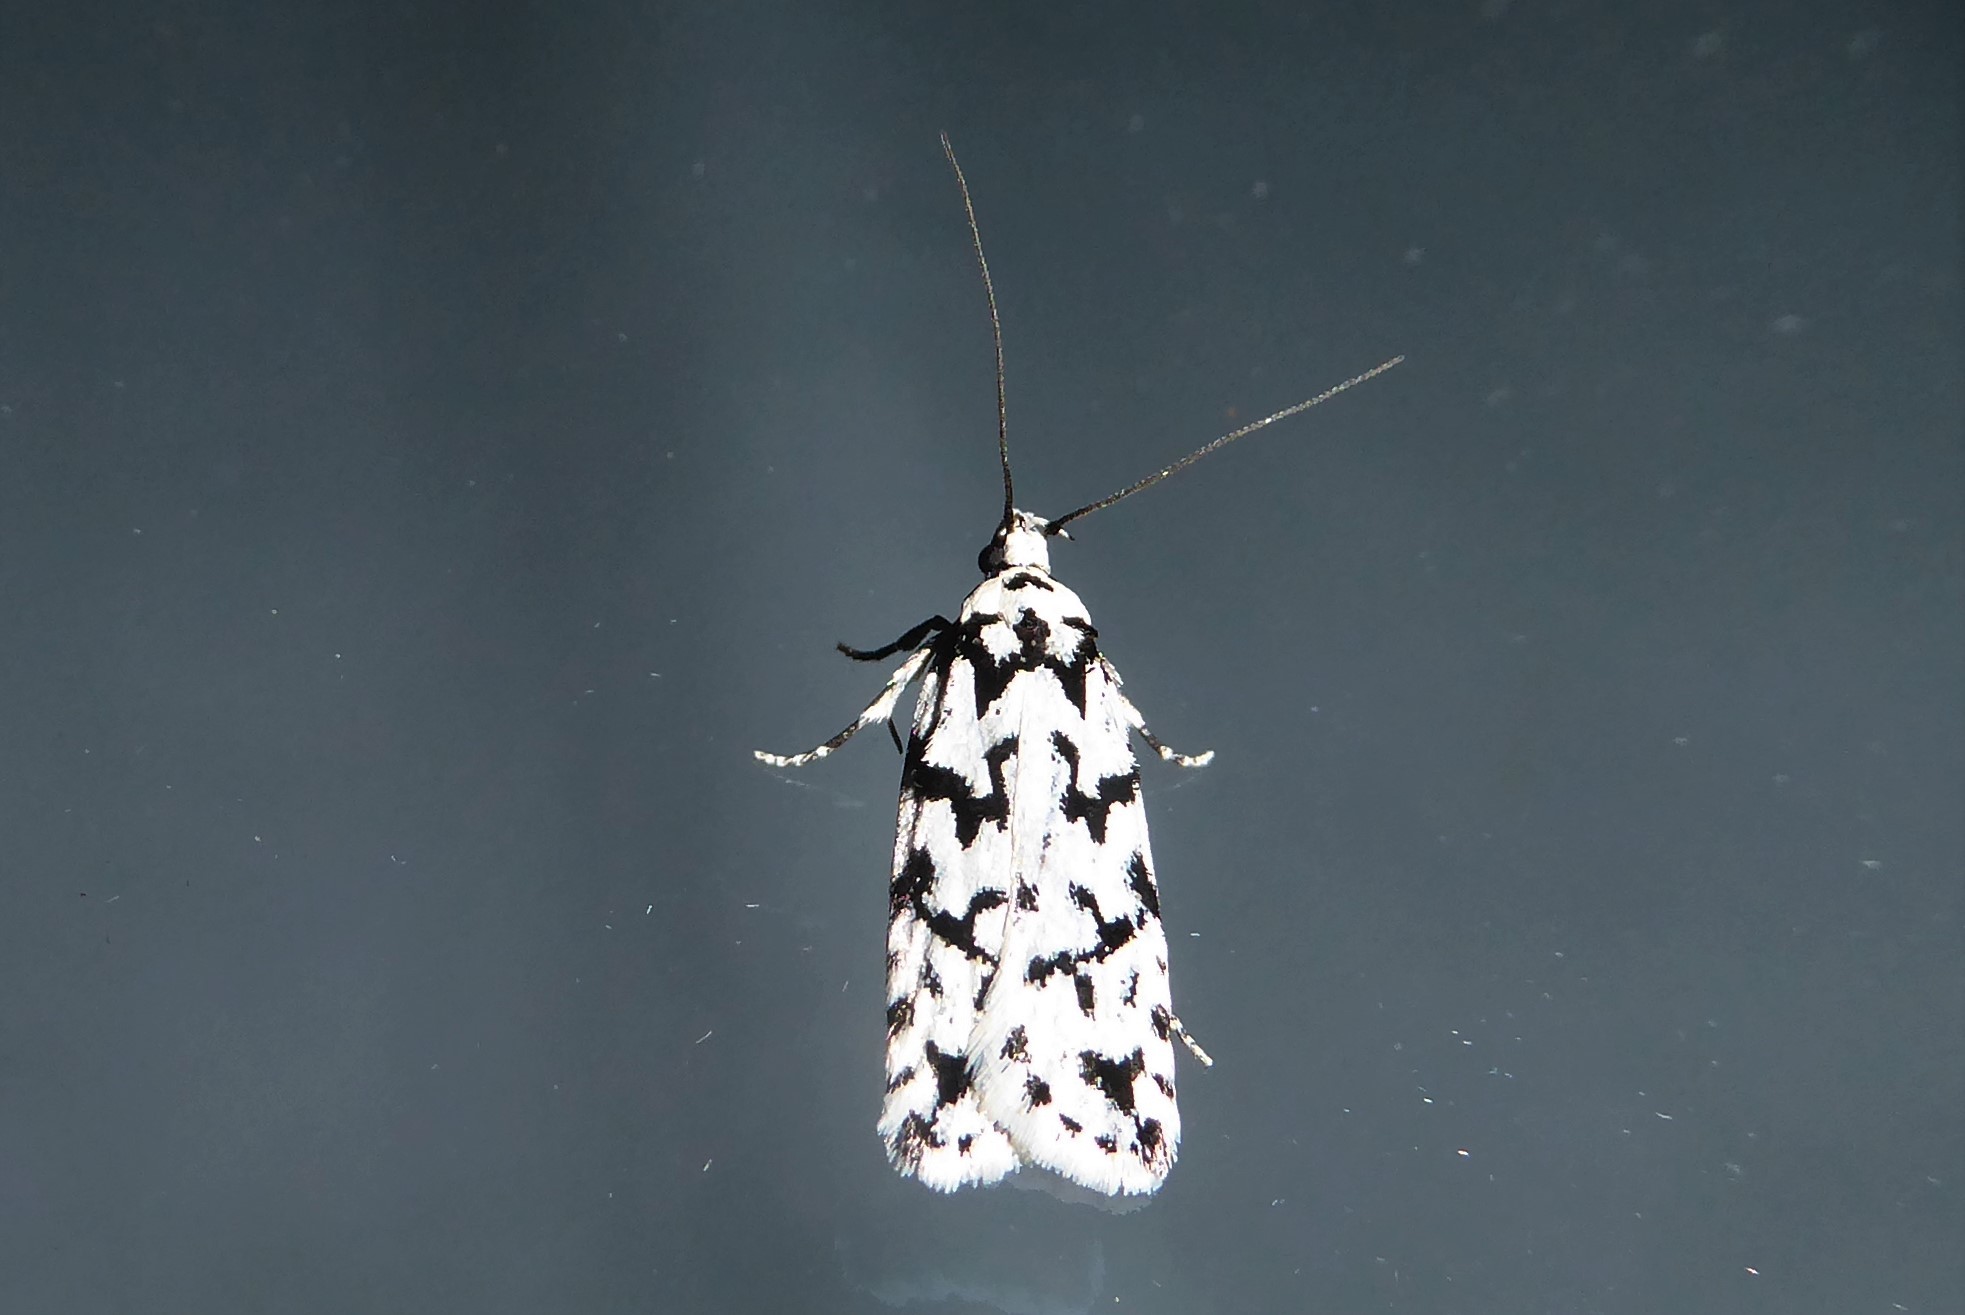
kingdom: Animalia
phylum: Arthropoda
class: Insecta
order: Lepidoptera
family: Oecophoridae
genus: Izatha
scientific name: Izatha katadiktya
